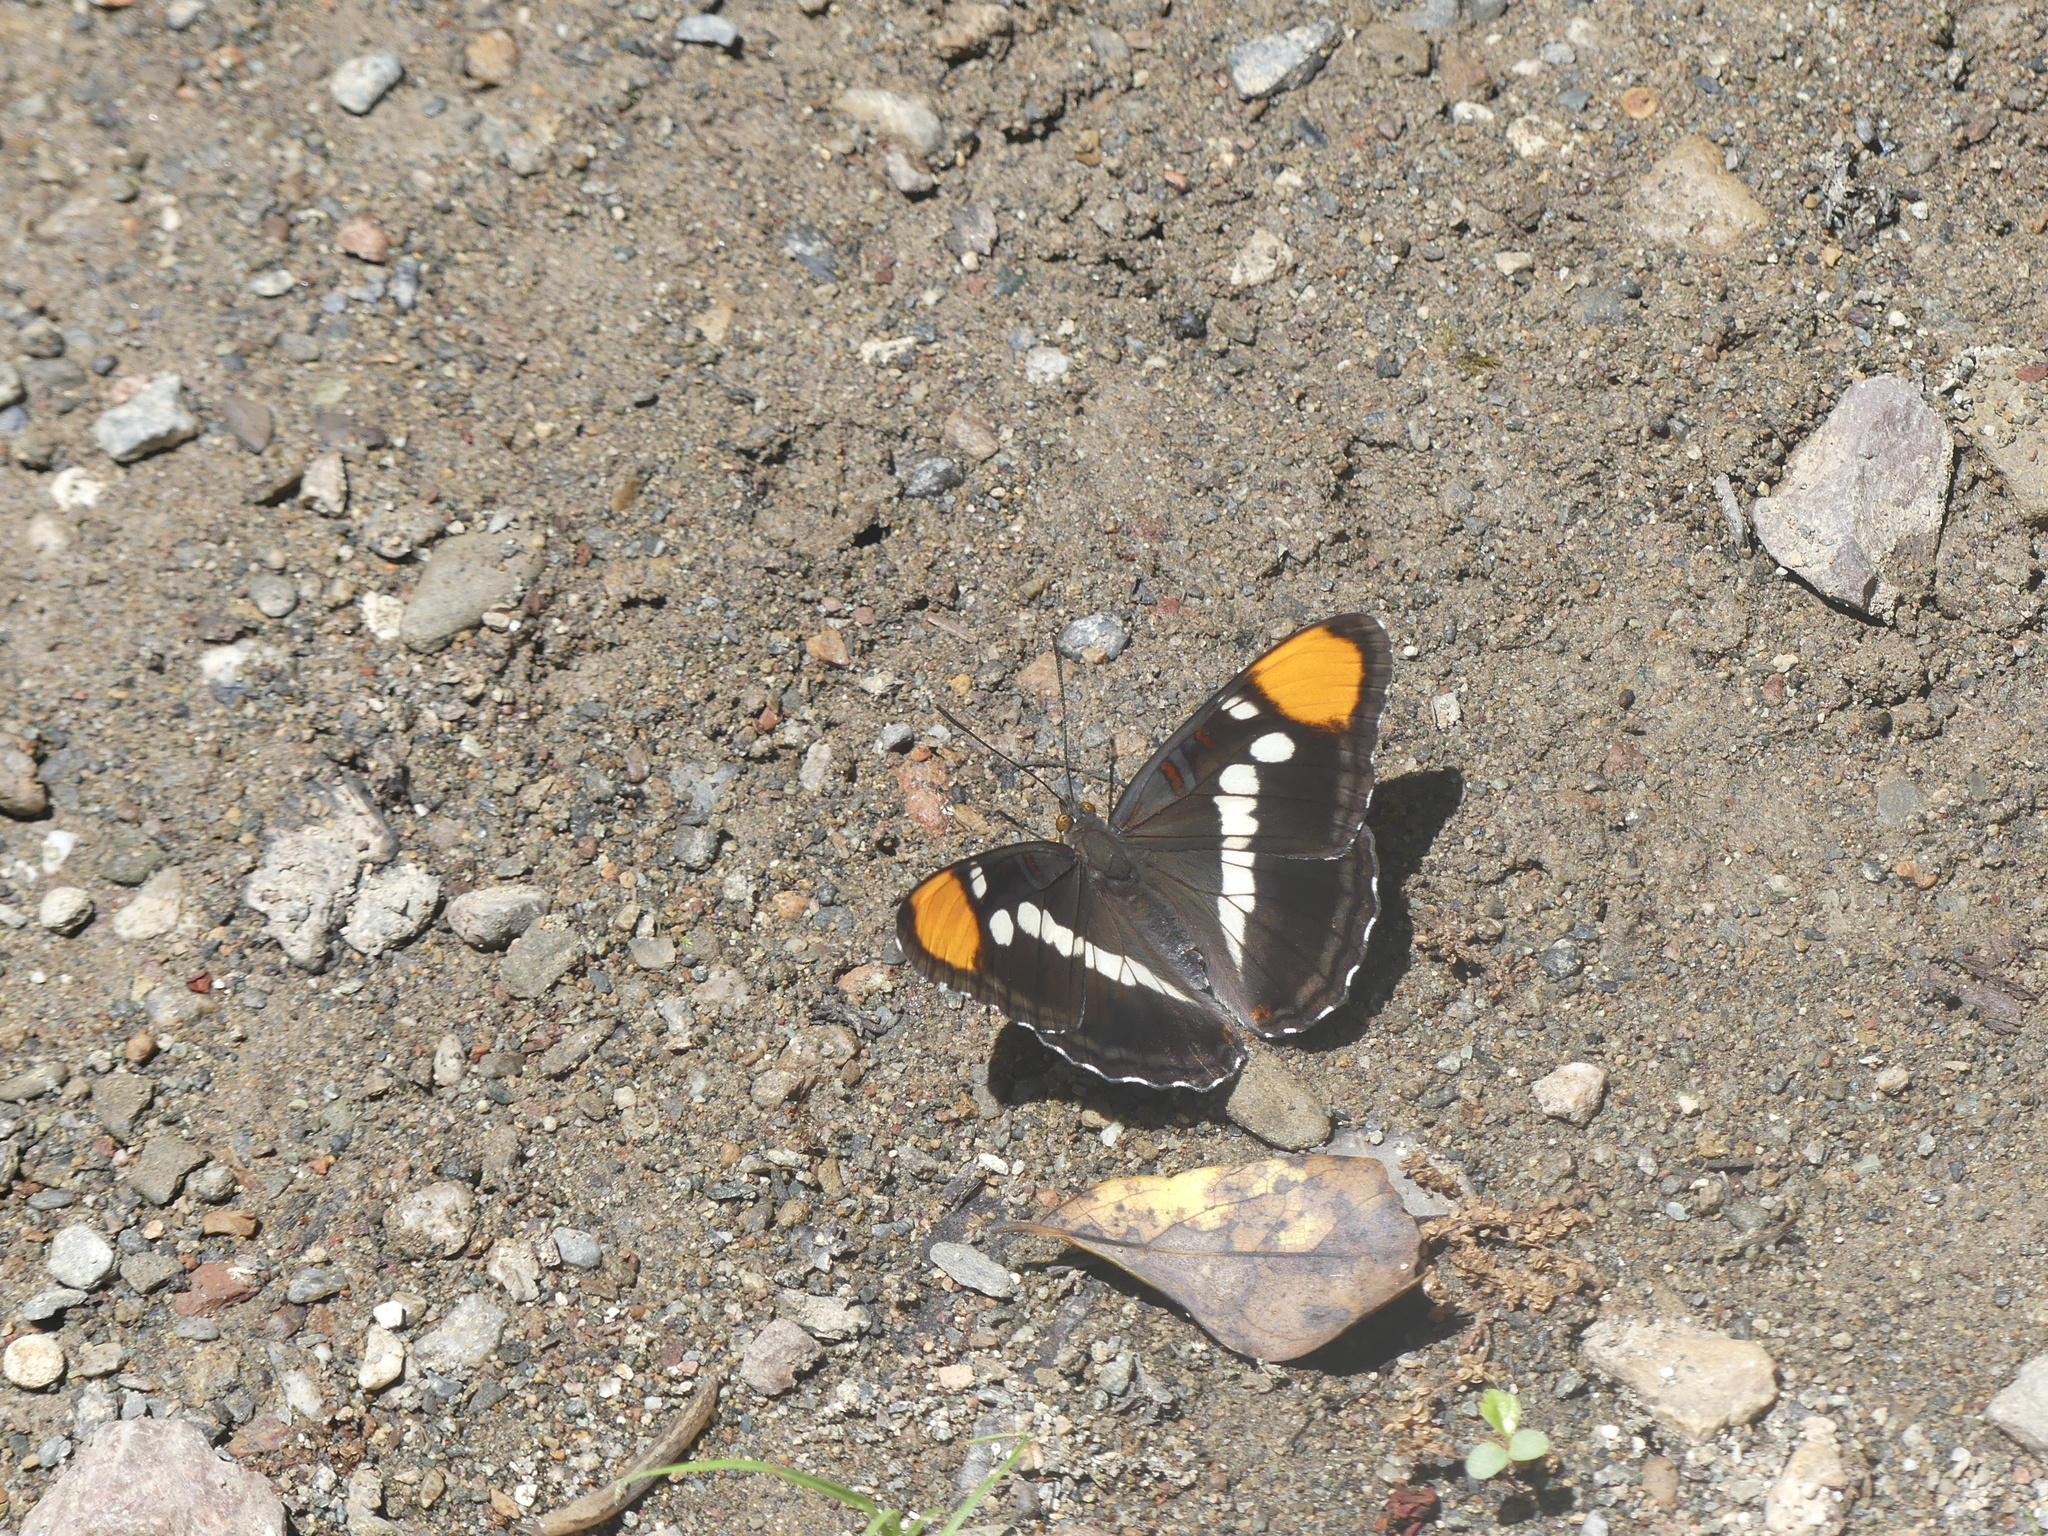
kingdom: Animalia
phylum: Arthropoda
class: Insecta
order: Lepidoptera
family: Nymphalidae
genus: Limenitis
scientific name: Limenitis bredowii
